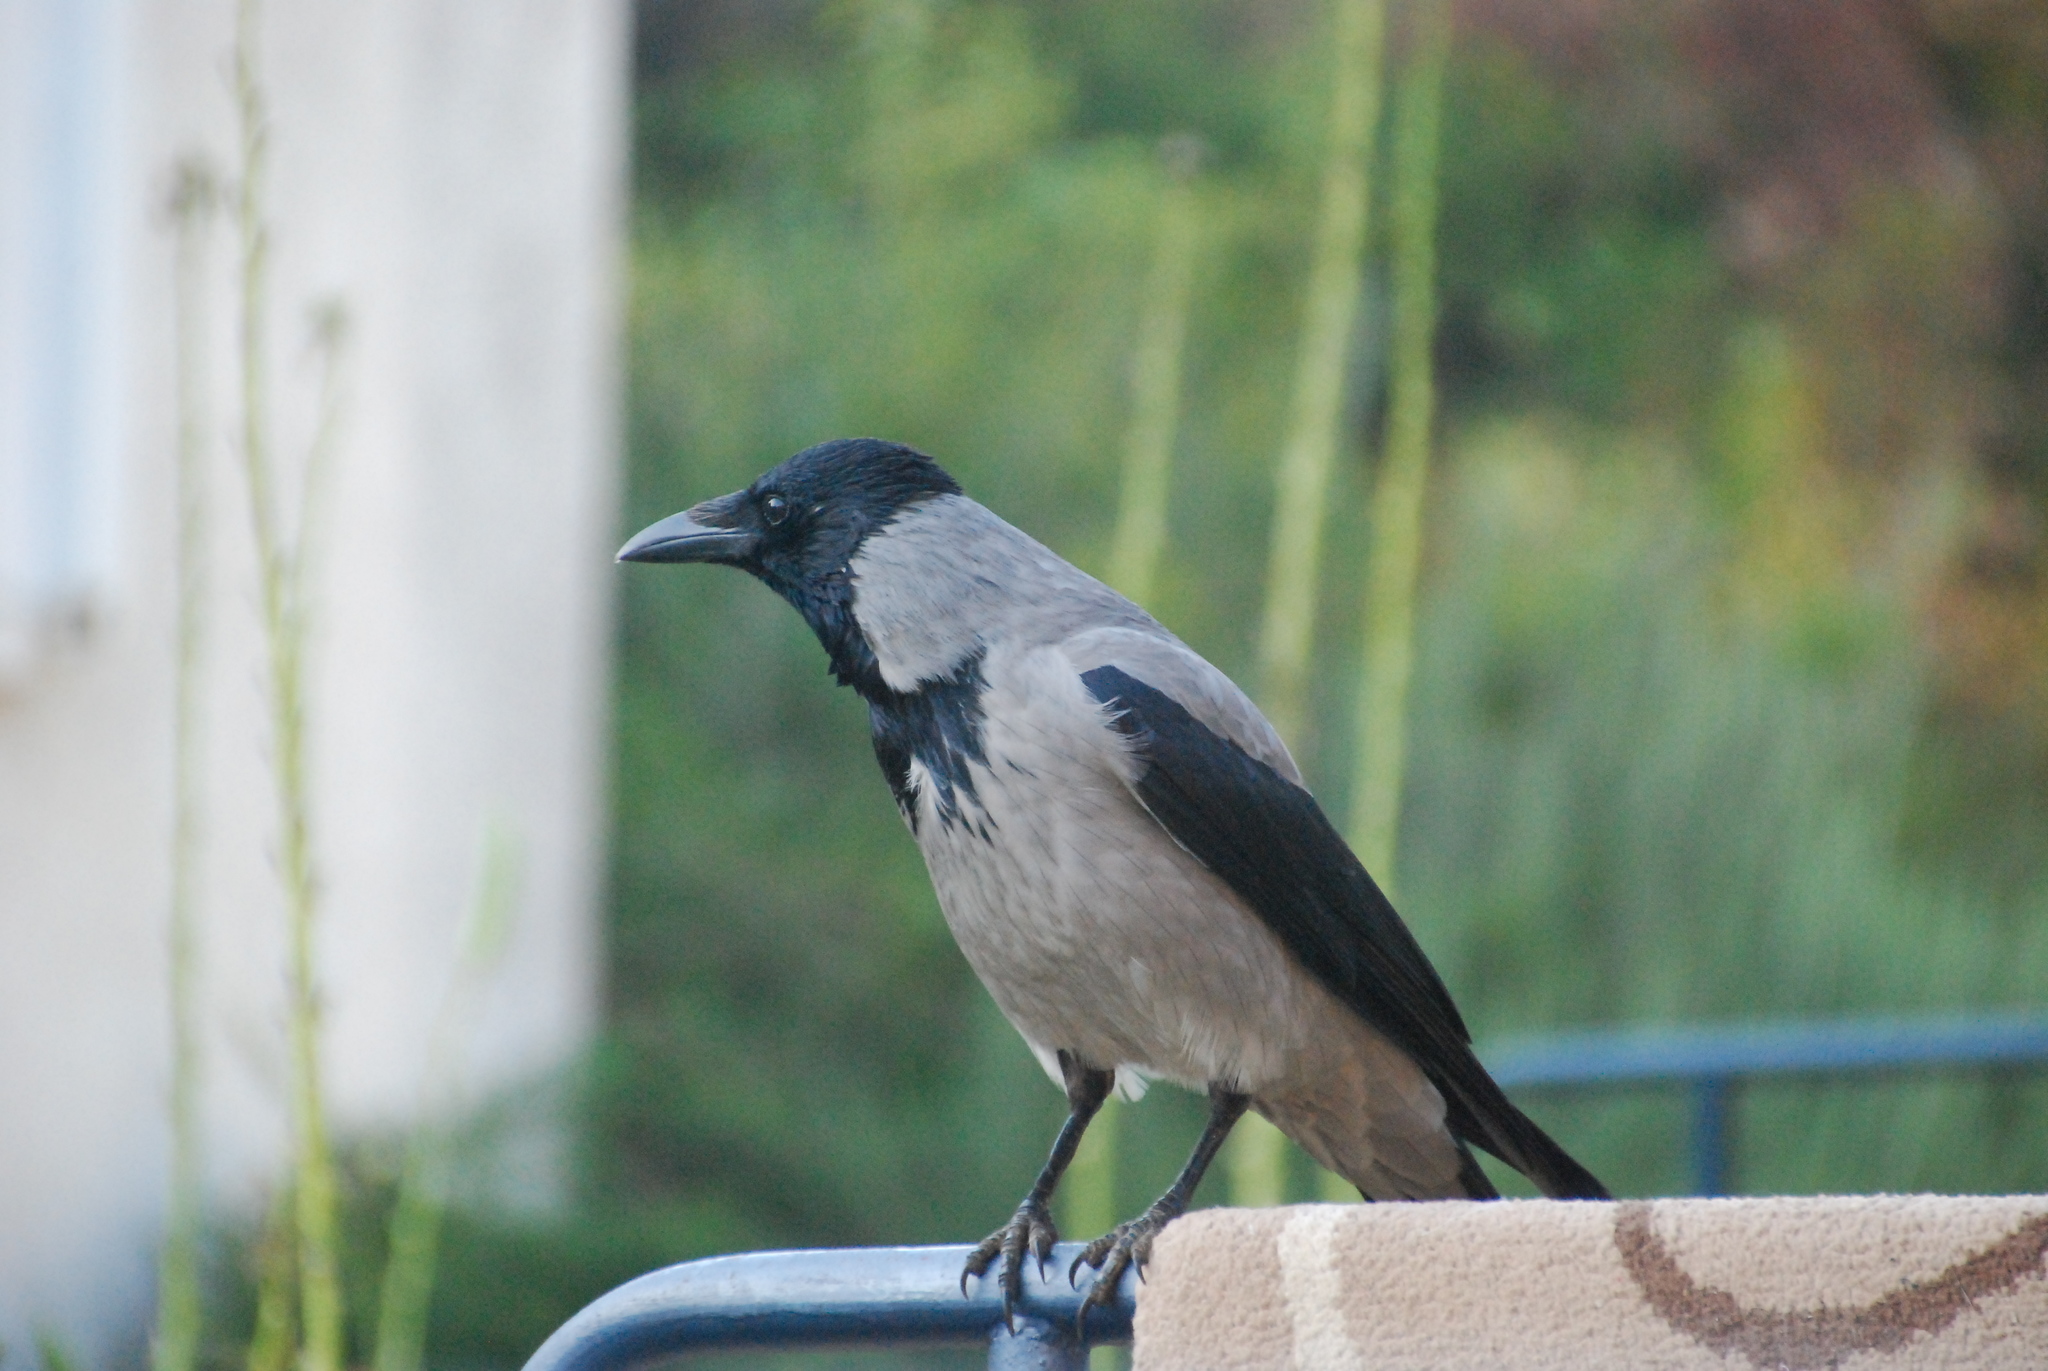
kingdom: Animalia
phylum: Chordata
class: Aves
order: Passeriformes
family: Corvidae
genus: Corvus
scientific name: Corvus cornix
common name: Hooded crow
